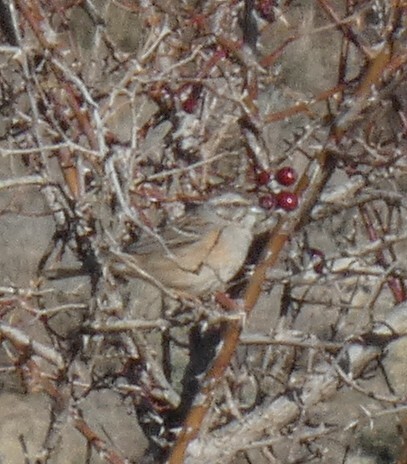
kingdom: Animalia
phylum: Chordata
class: Aves
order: Passeriformes
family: Emberizidae
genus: Emberiza
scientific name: Emberiza cia
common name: Rock bunting
